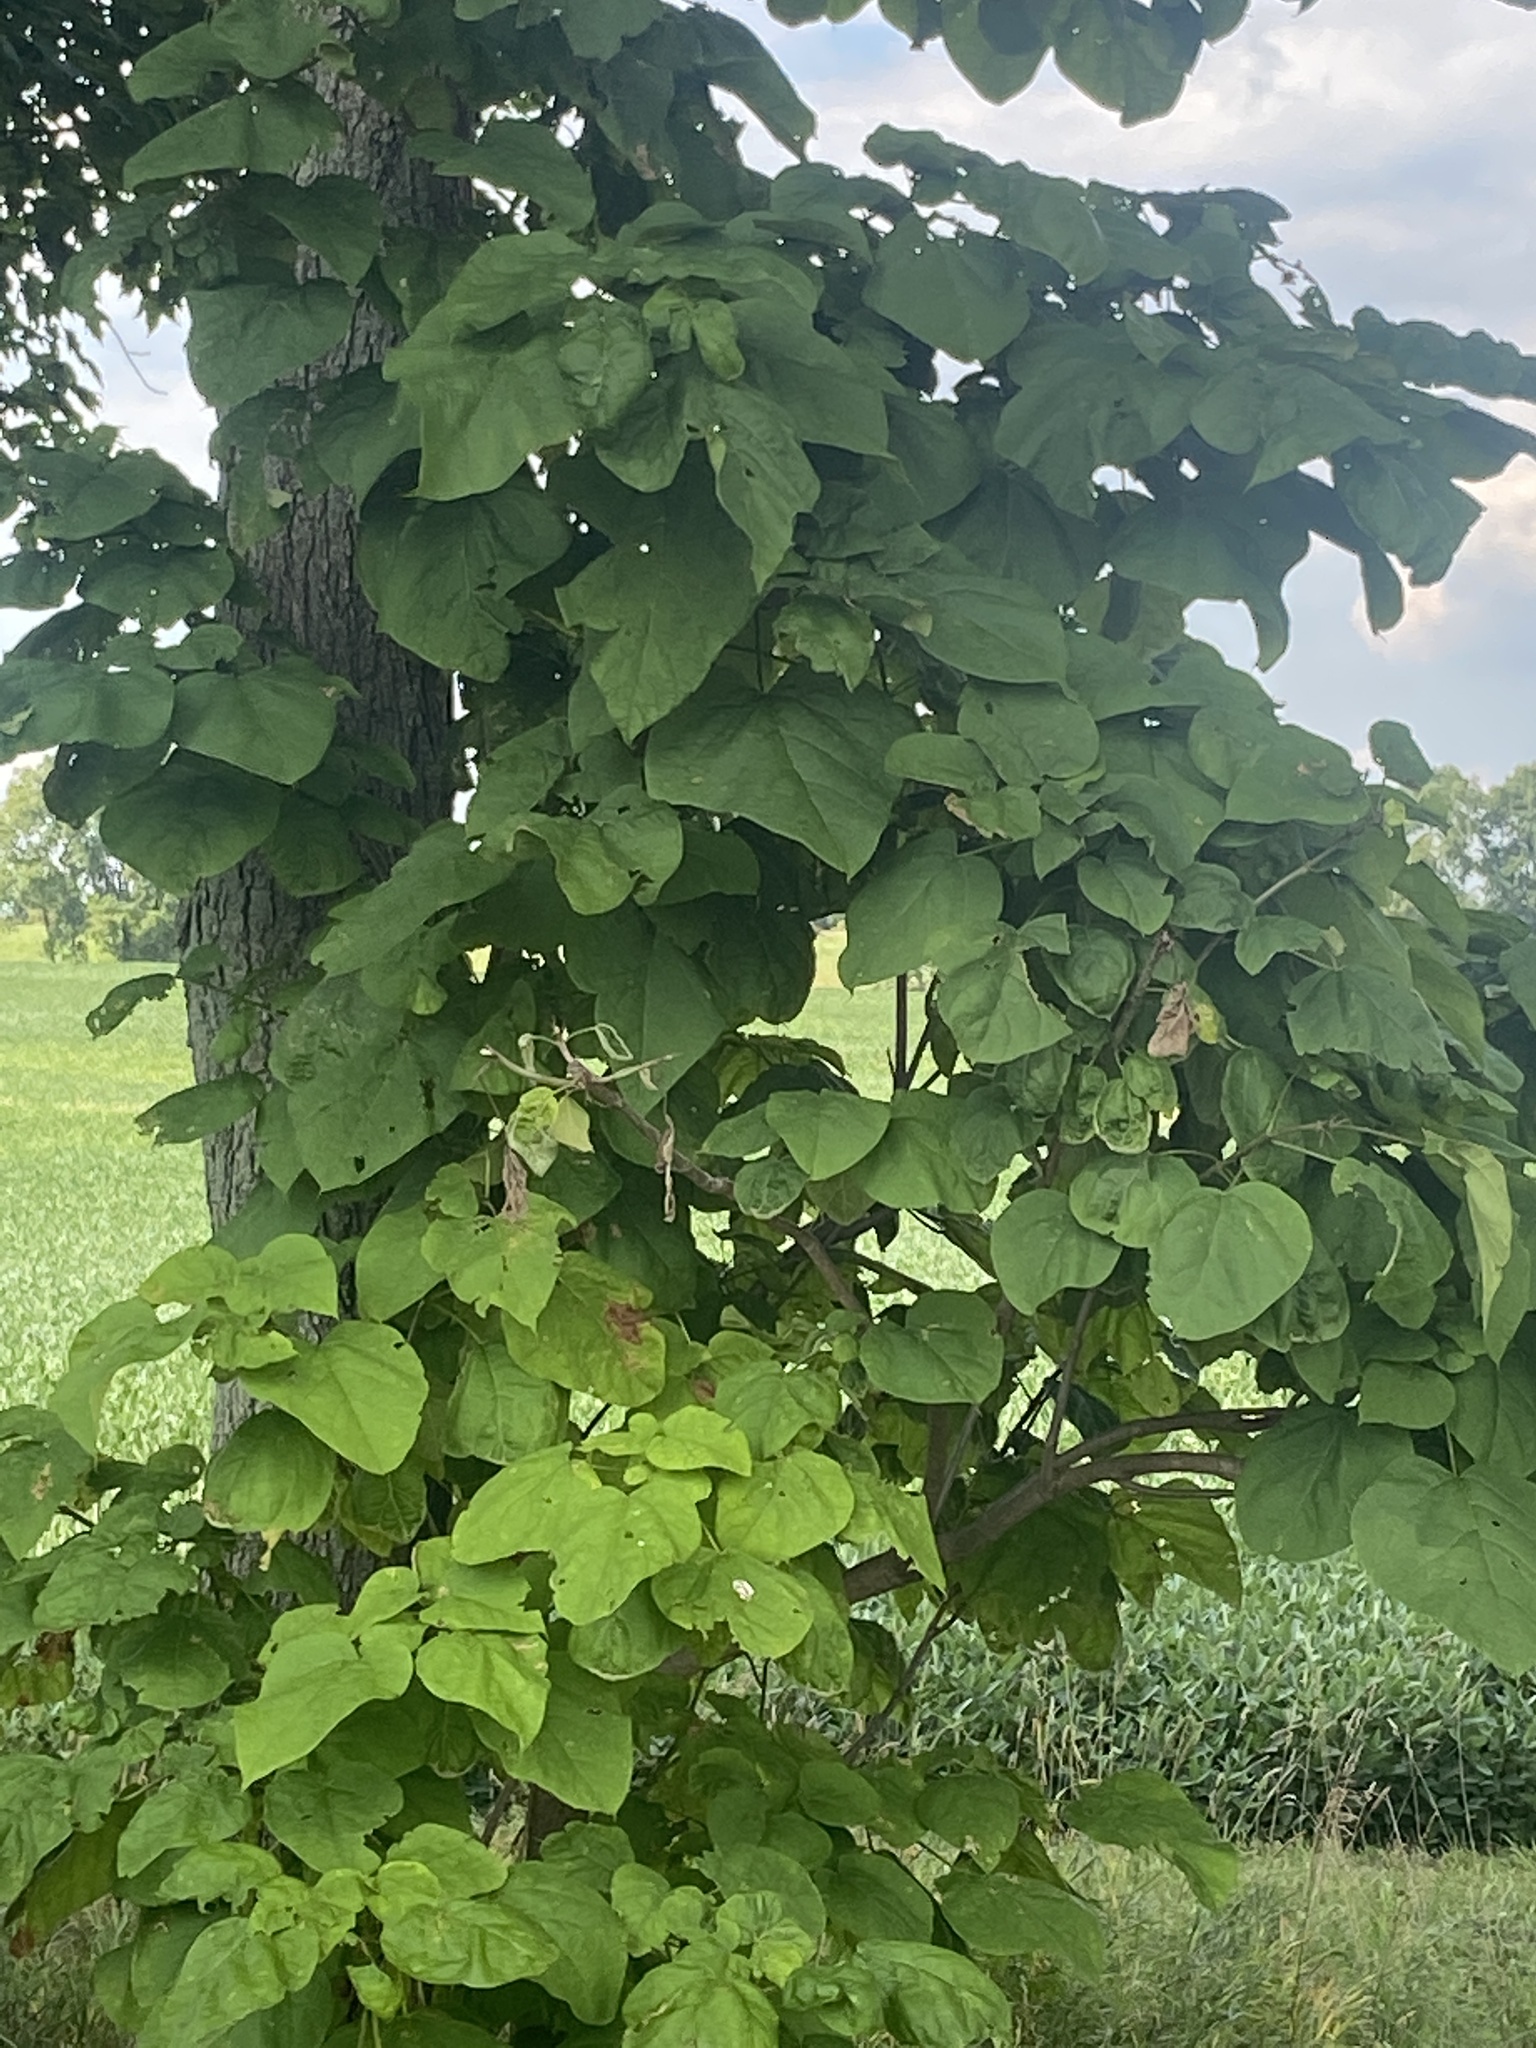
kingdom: Plantae
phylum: Tracheophyta
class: Magnoliopsida
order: Lamiales
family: Bignoniaceae
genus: Catalpa
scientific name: Catalpa speciosa
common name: Northern catalpa
